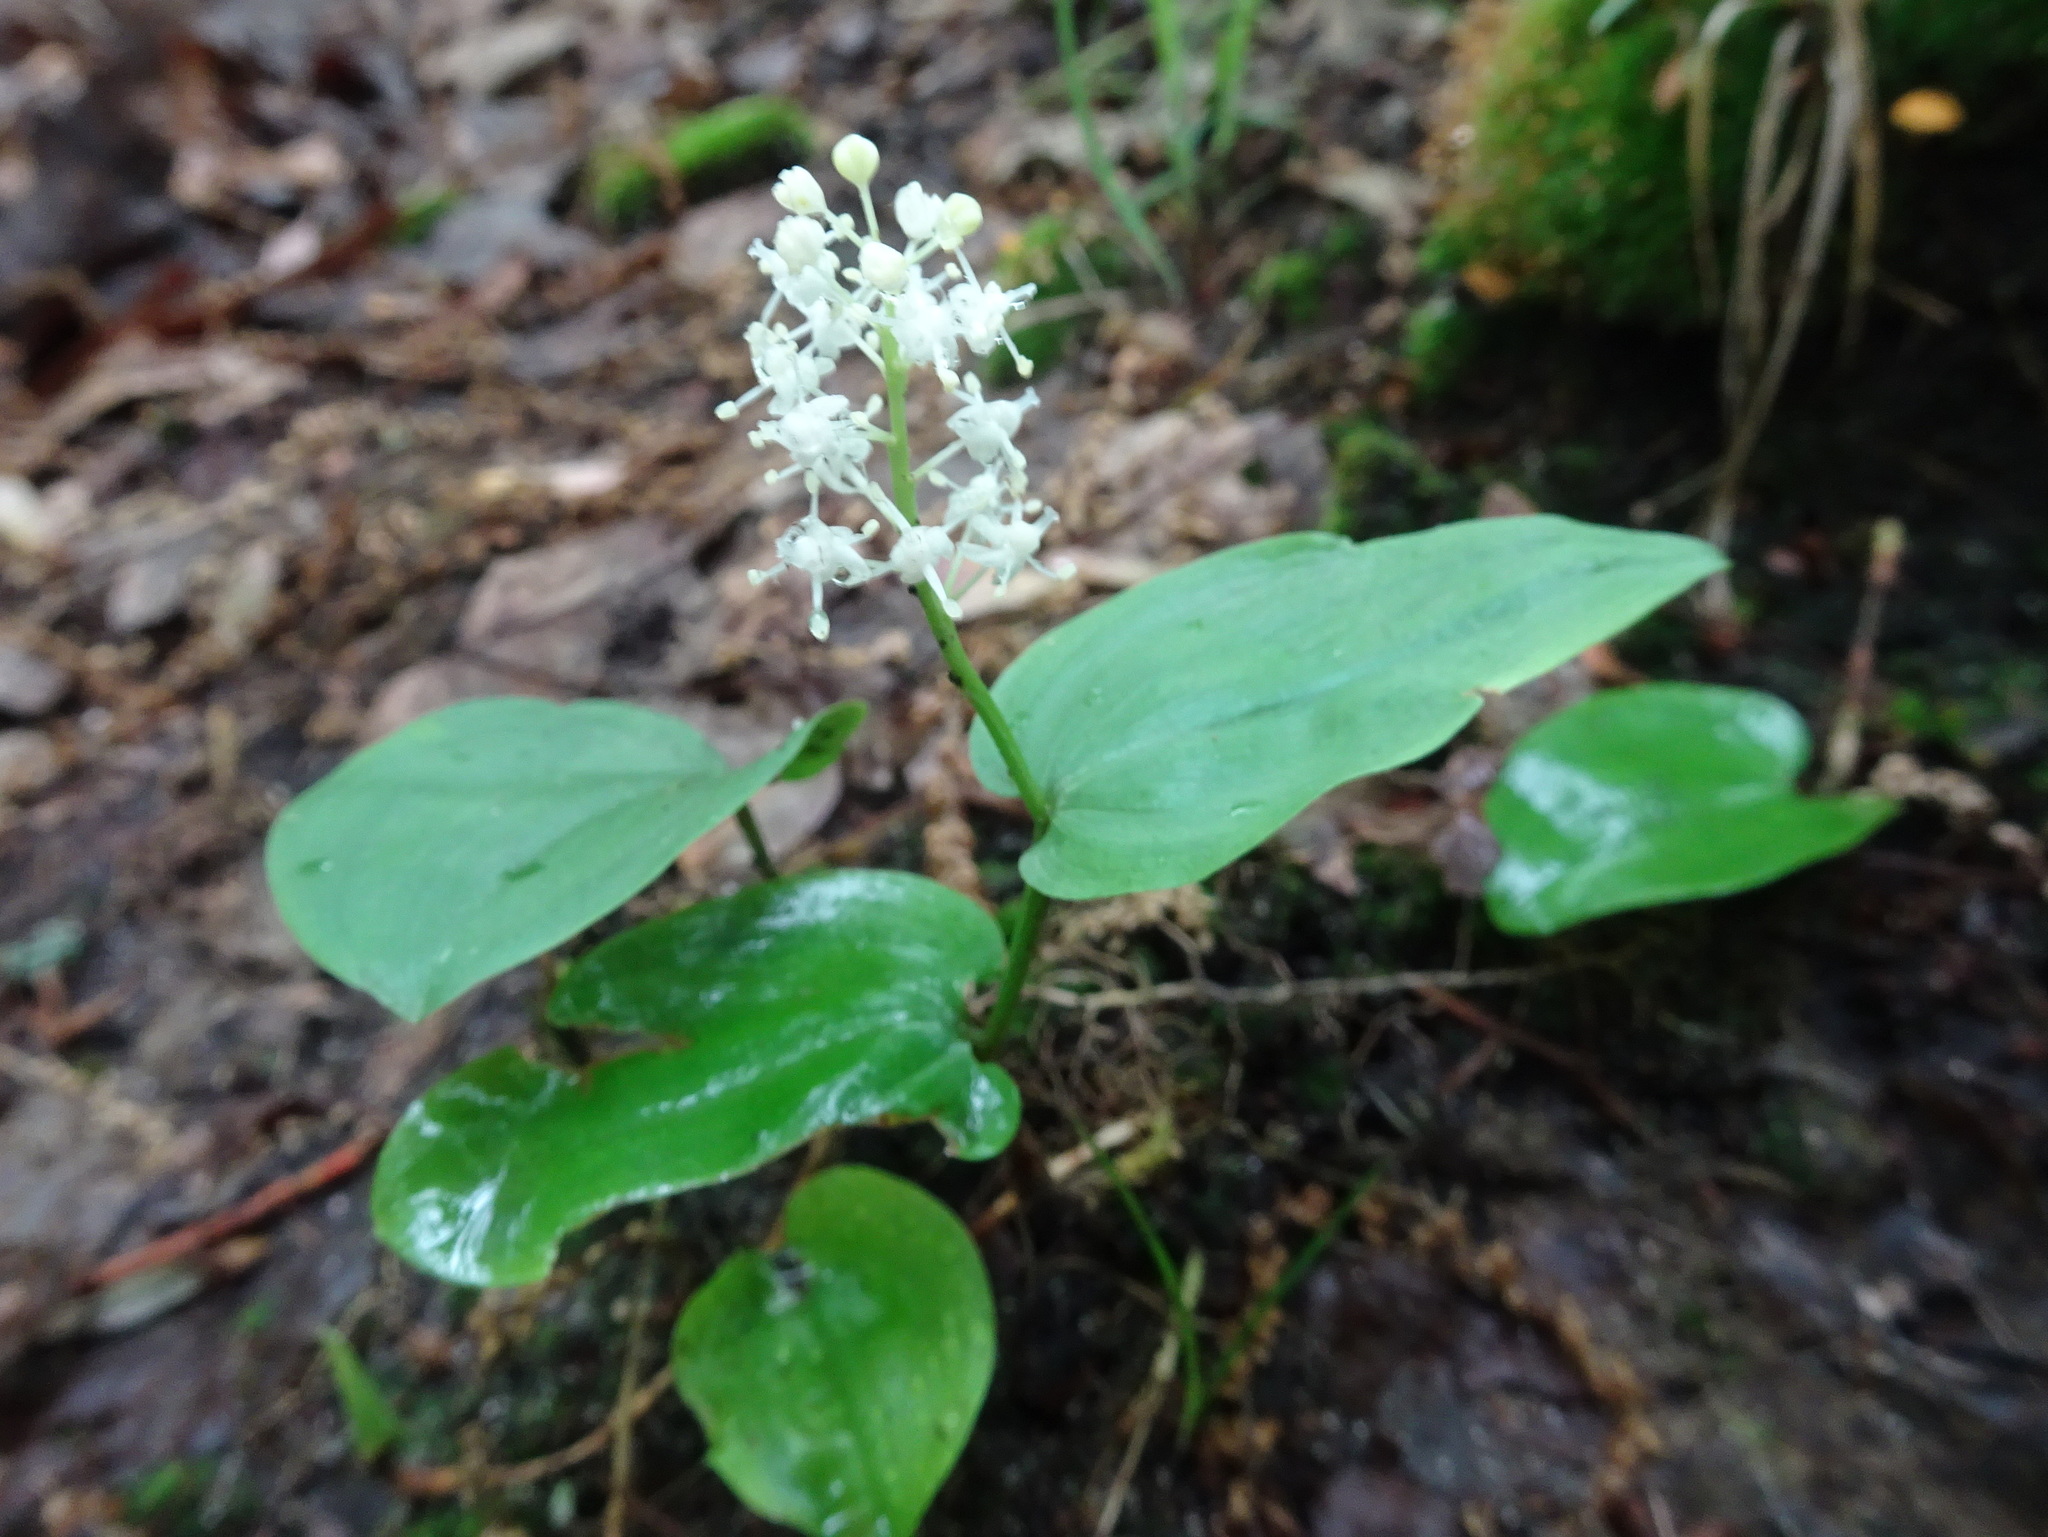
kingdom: Plantae
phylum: Tracheophyta
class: Liliopsida
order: Asparagales
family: Asparagaceae
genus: Maianthemum
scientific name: Maianthemum canadense
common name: False lily-of-the-valley
